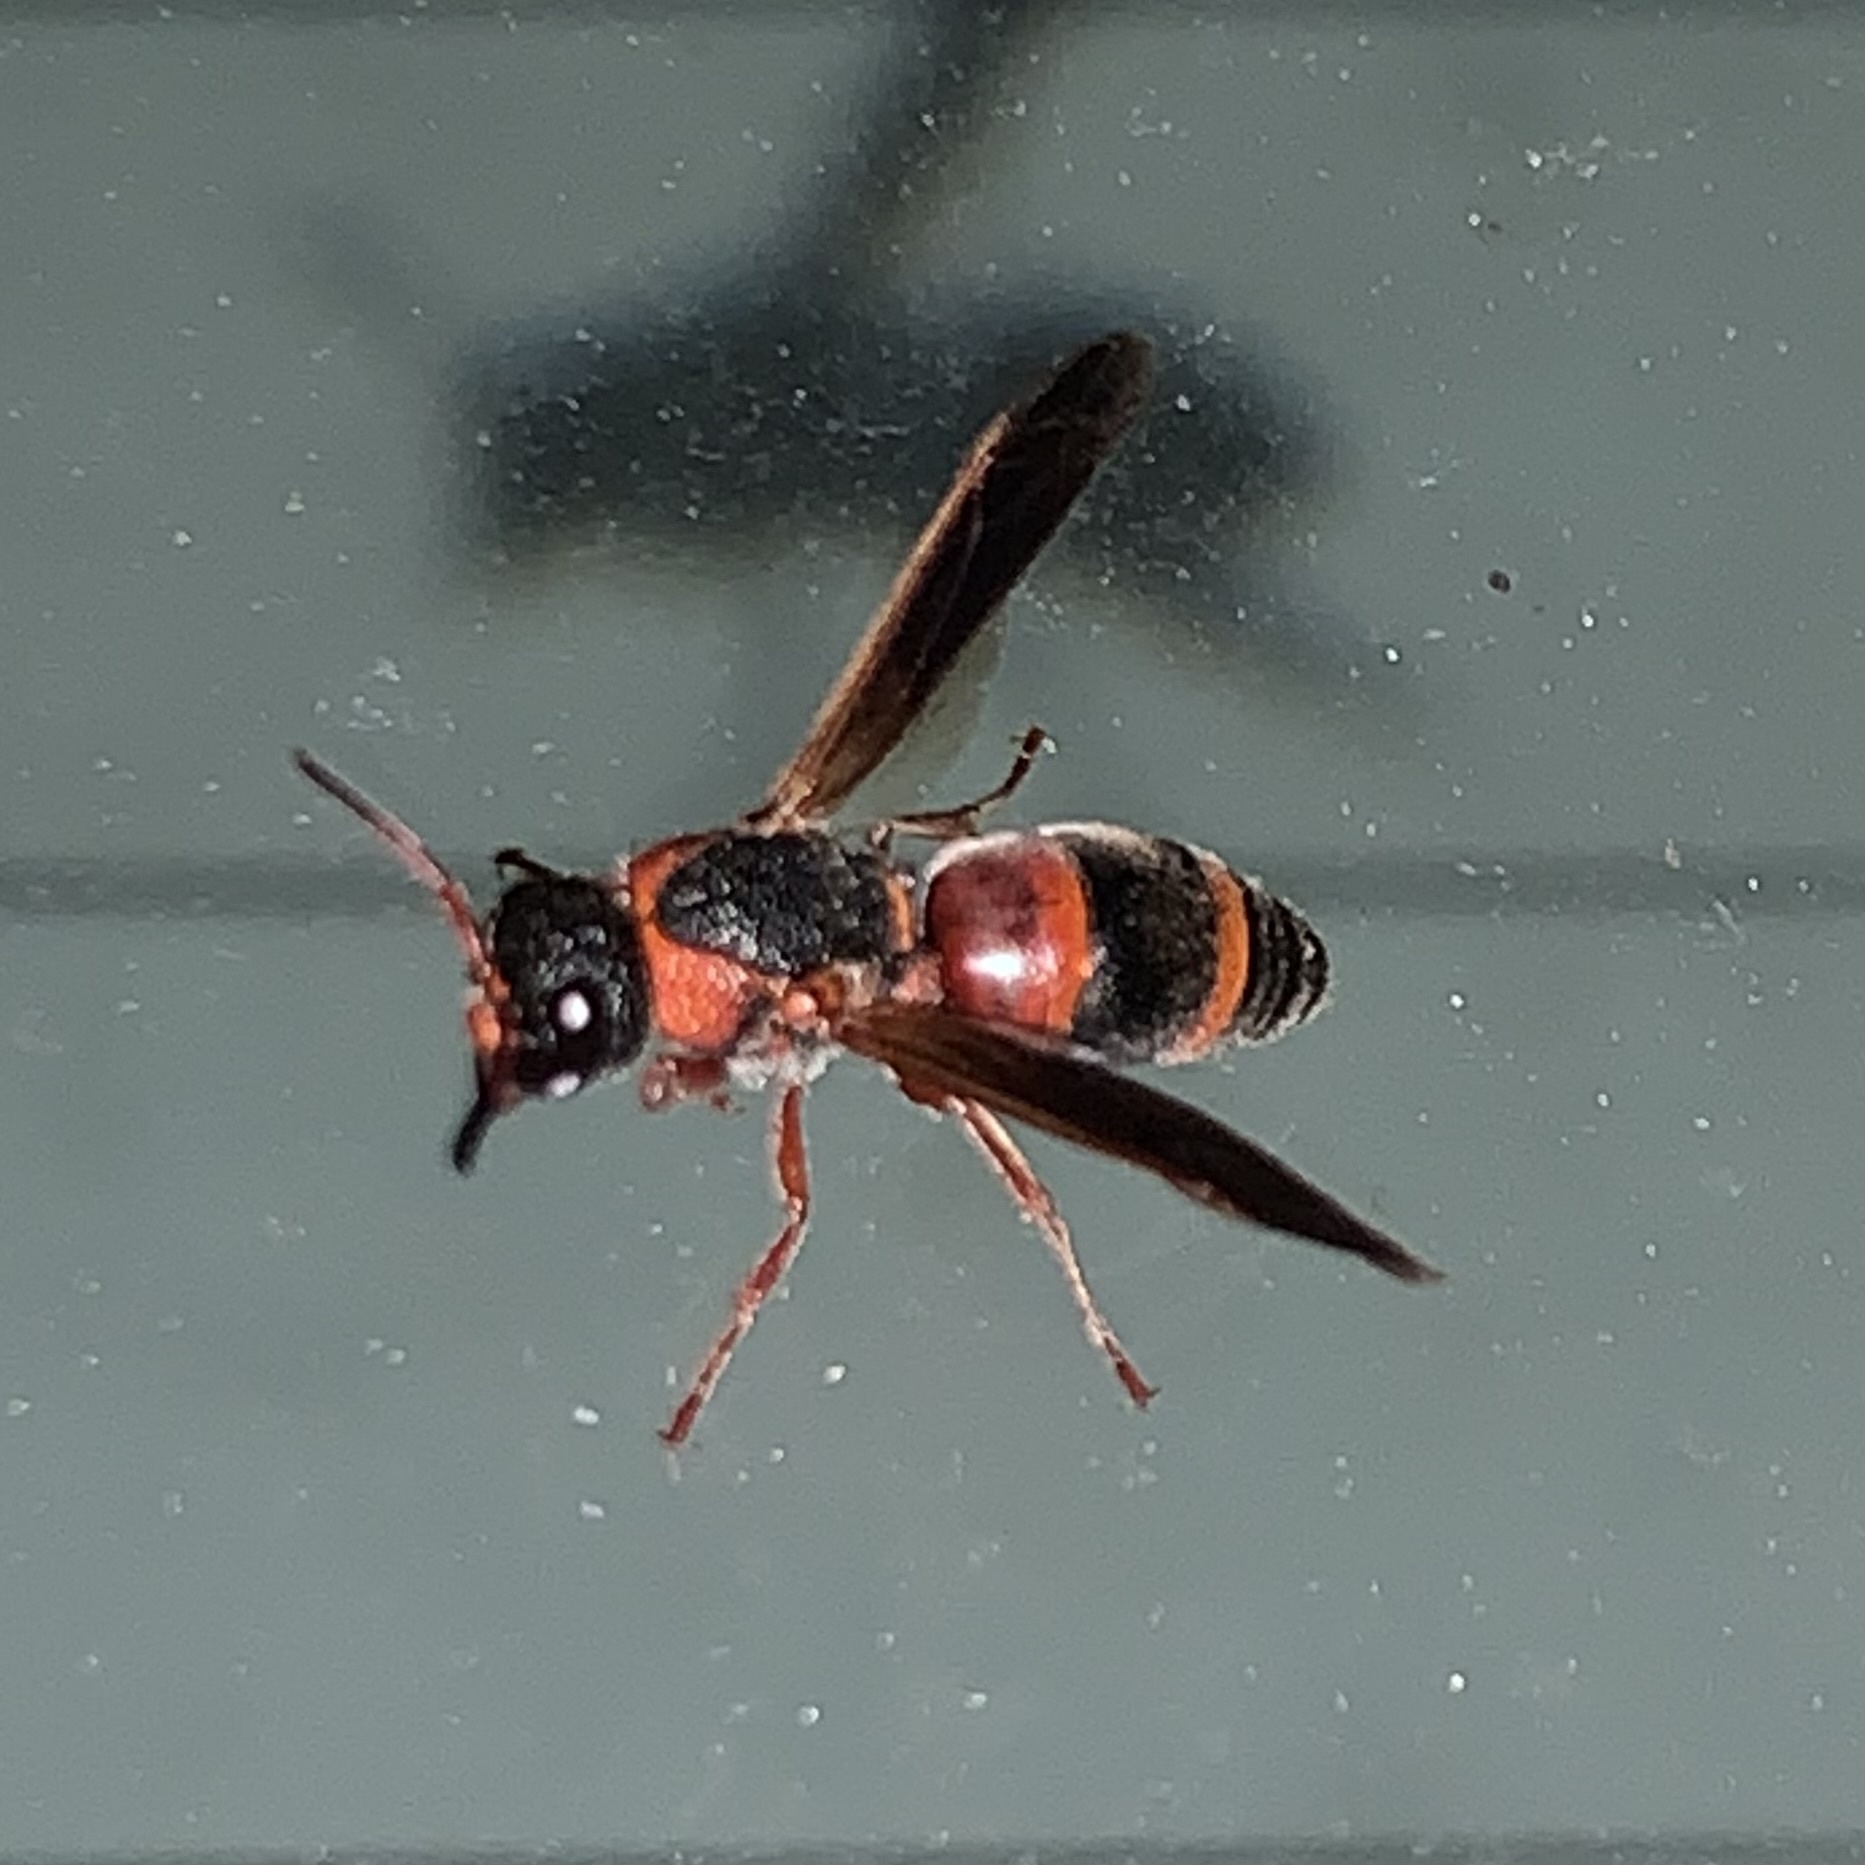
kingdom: Animalia
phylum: Arthropoda
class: Insecta
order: Hymenoptera
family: Eumenidae
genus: Pachodynerus
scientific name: Pachodynerus erynnis
